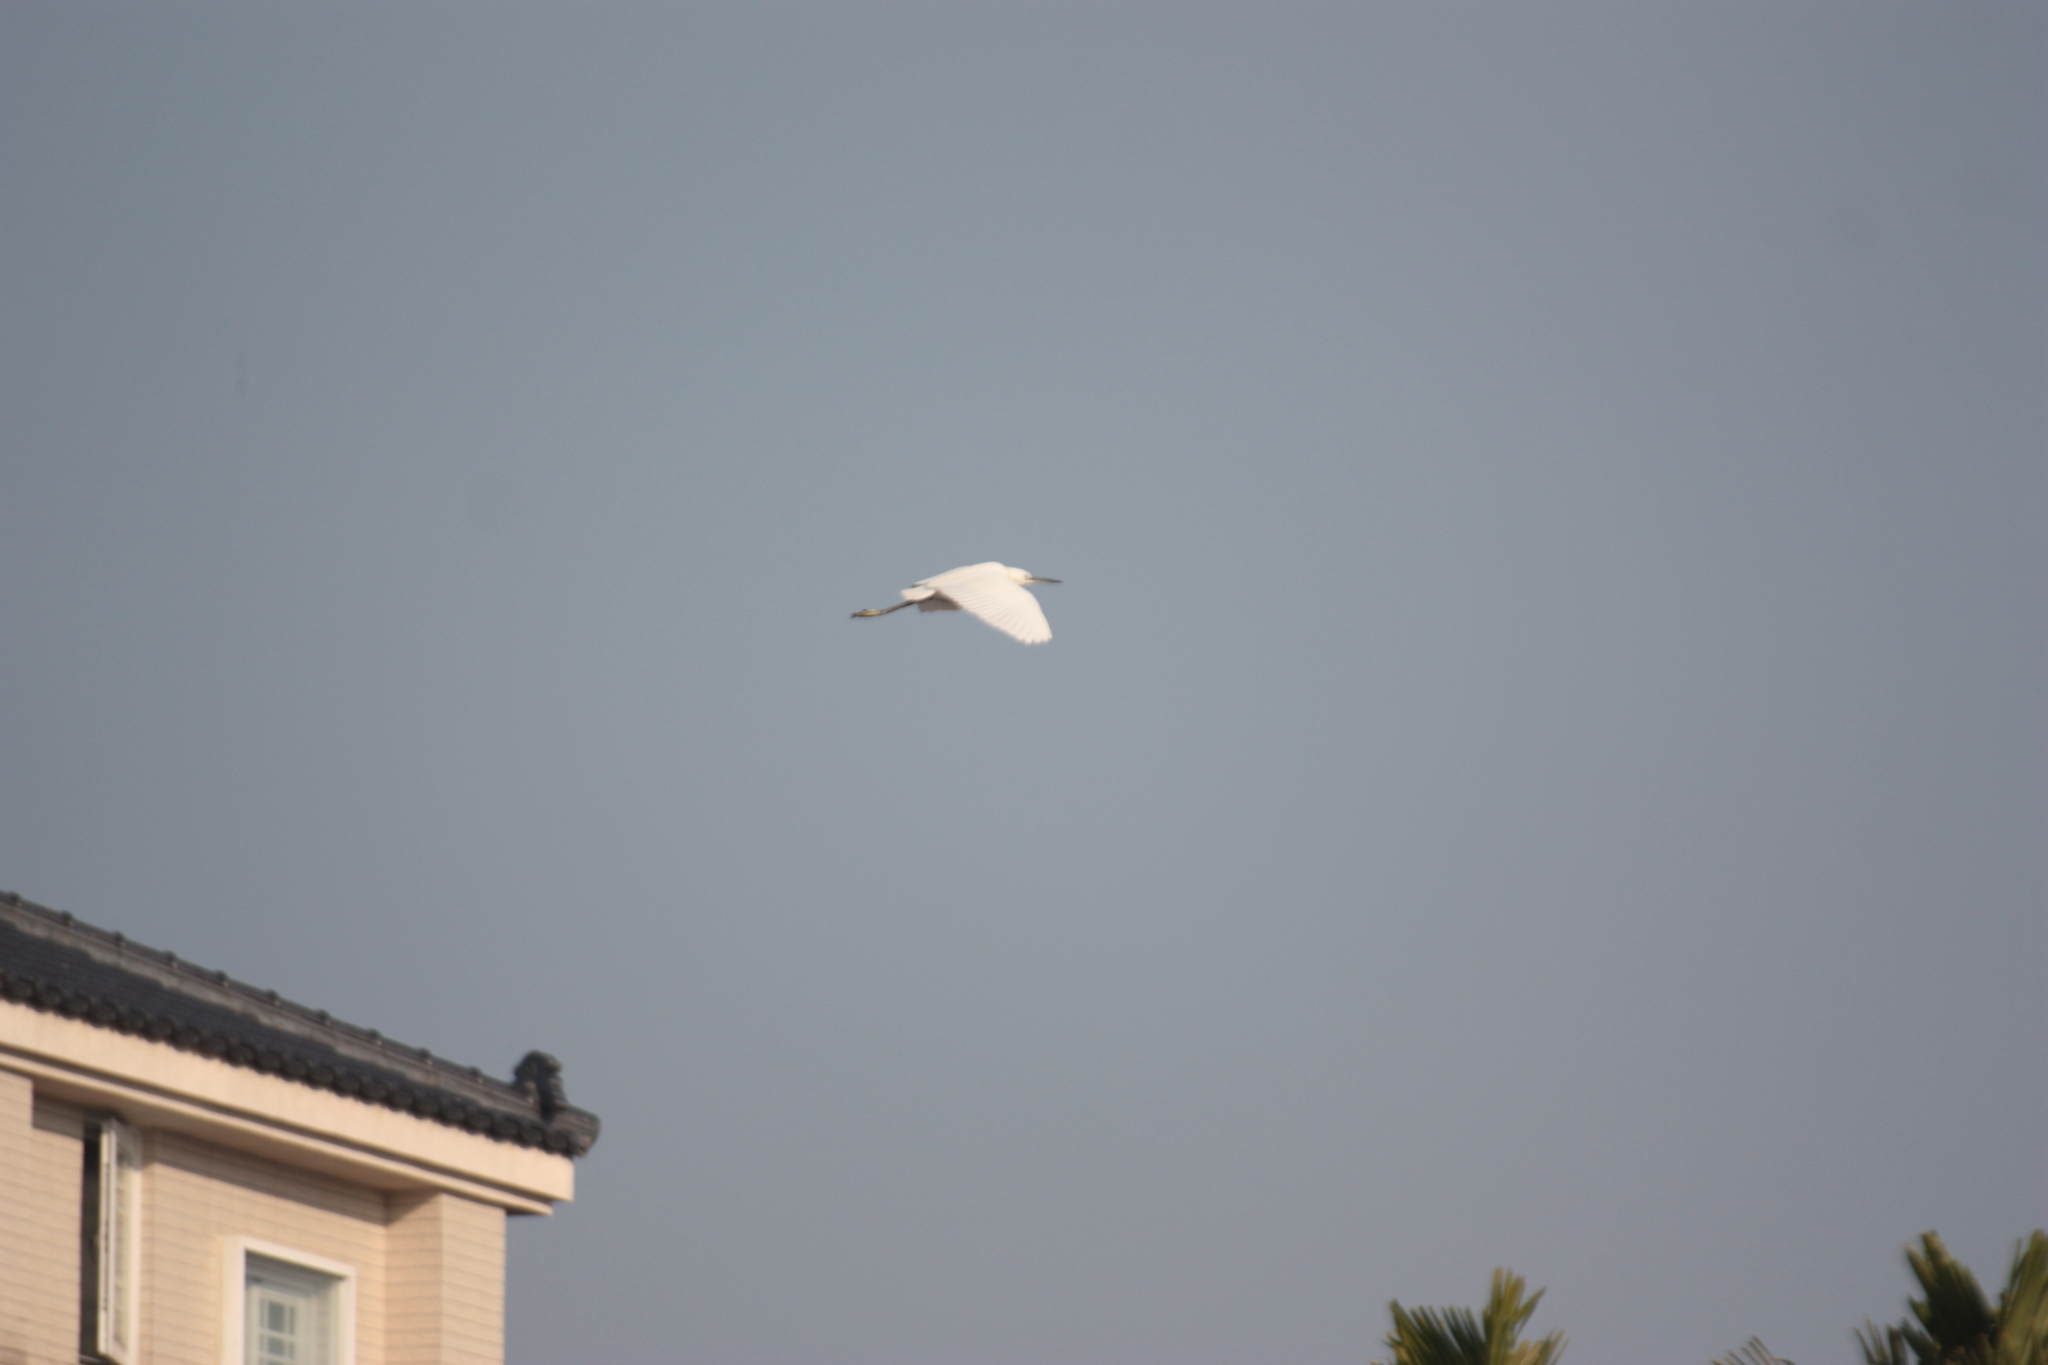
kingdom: Animalia
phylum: Chordata
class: Aves
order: Pelecaniformes
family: Ardeidae
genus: Egretta
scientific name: Egretta garzetta
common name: Little egret
